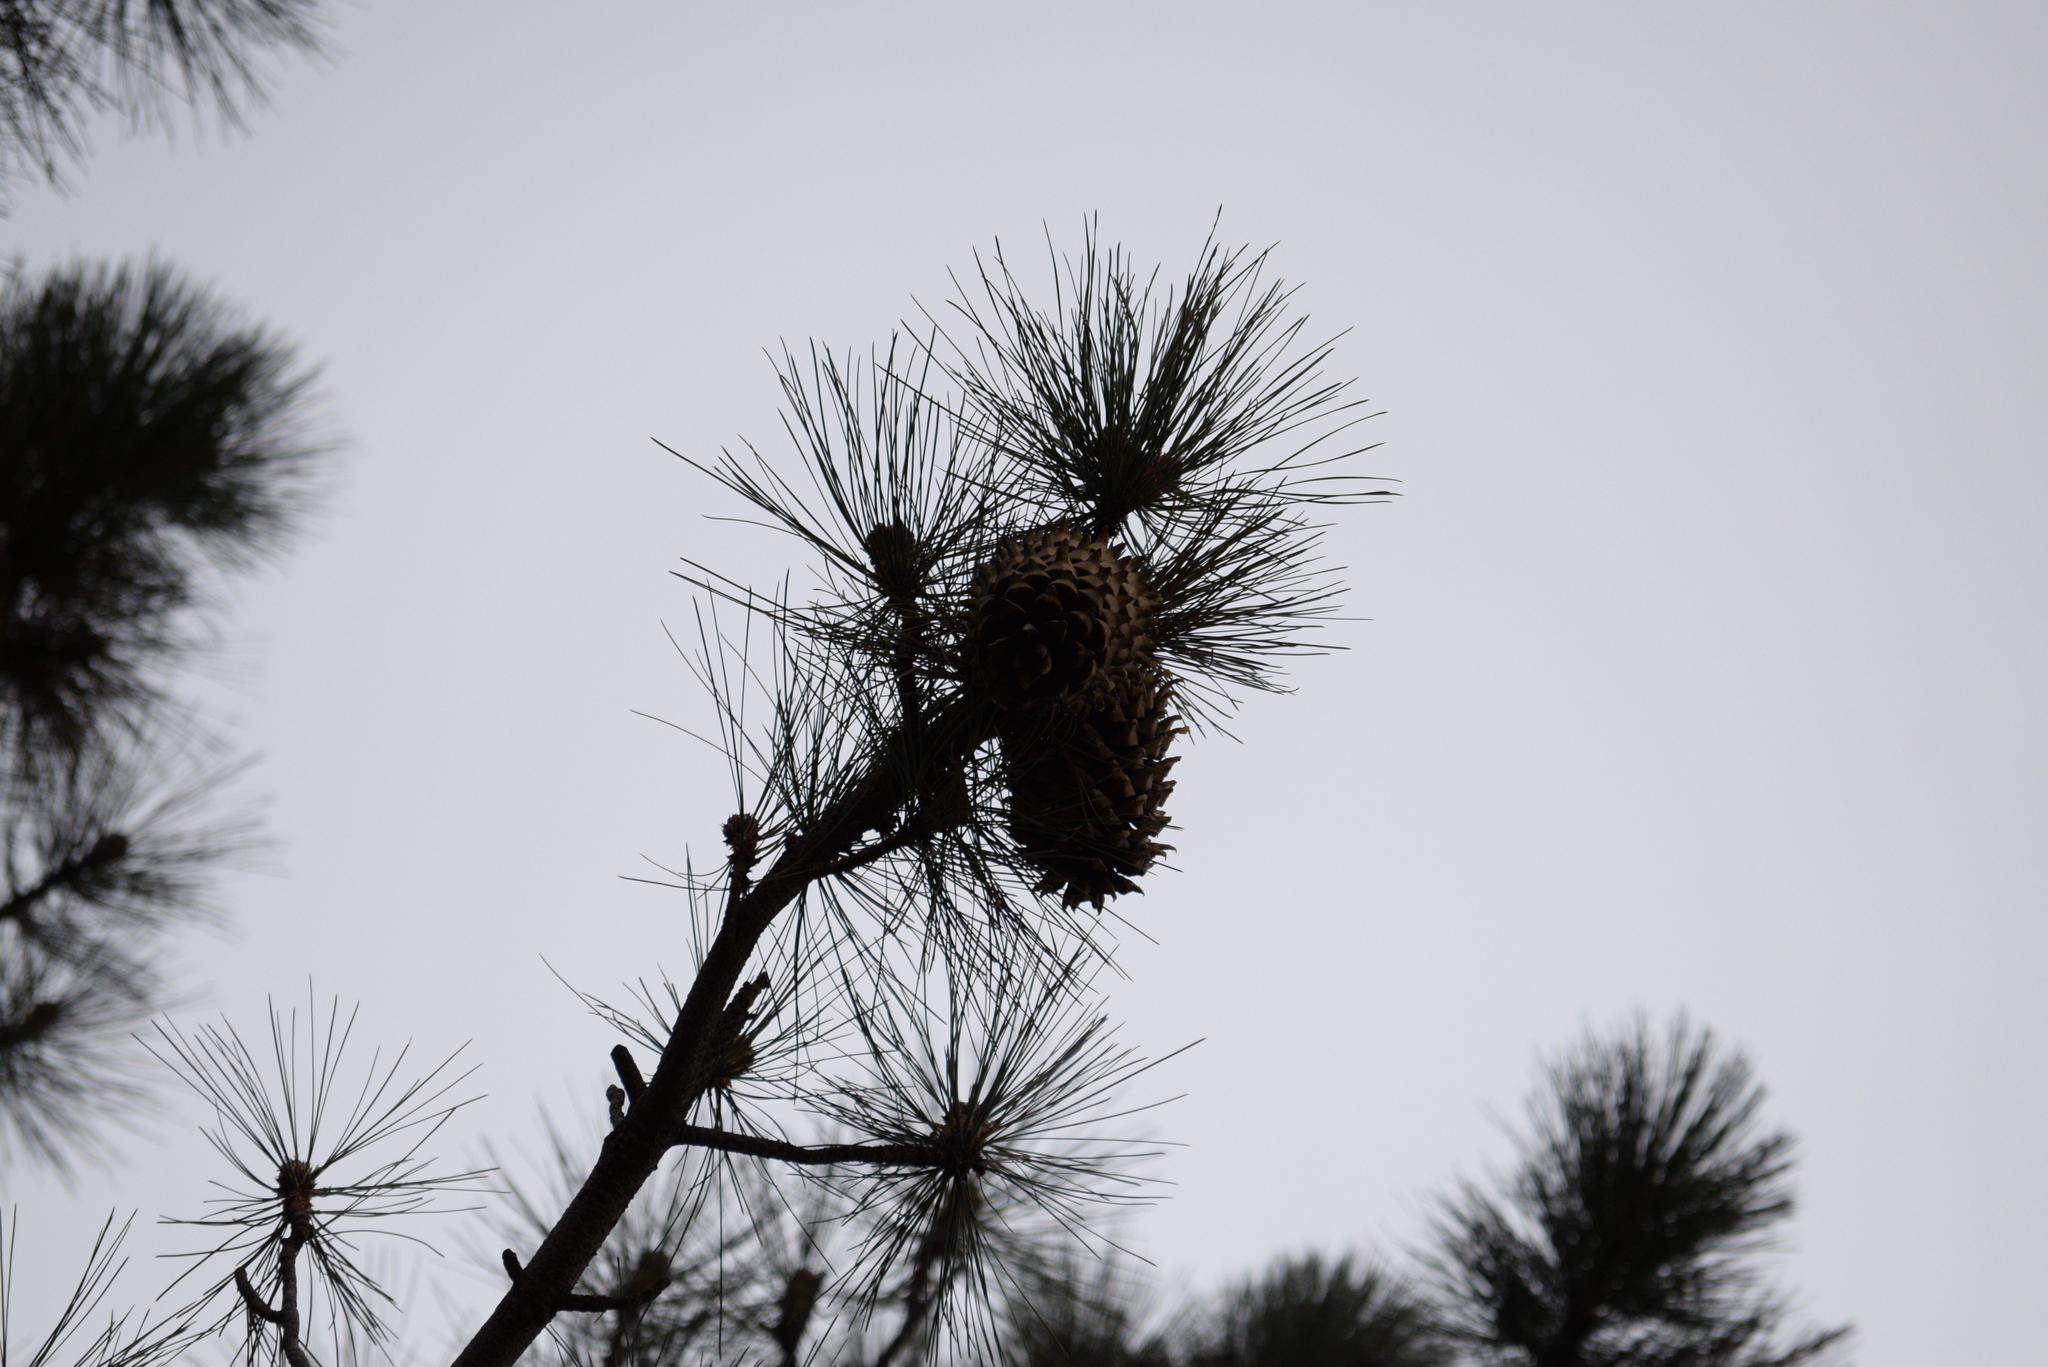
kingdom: Plantae
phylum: Tracheophyta
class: Pinopsida
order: Pinales
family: Pinaceae
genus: Pinus
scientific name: Pinus coulteri
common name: Coulter pine
